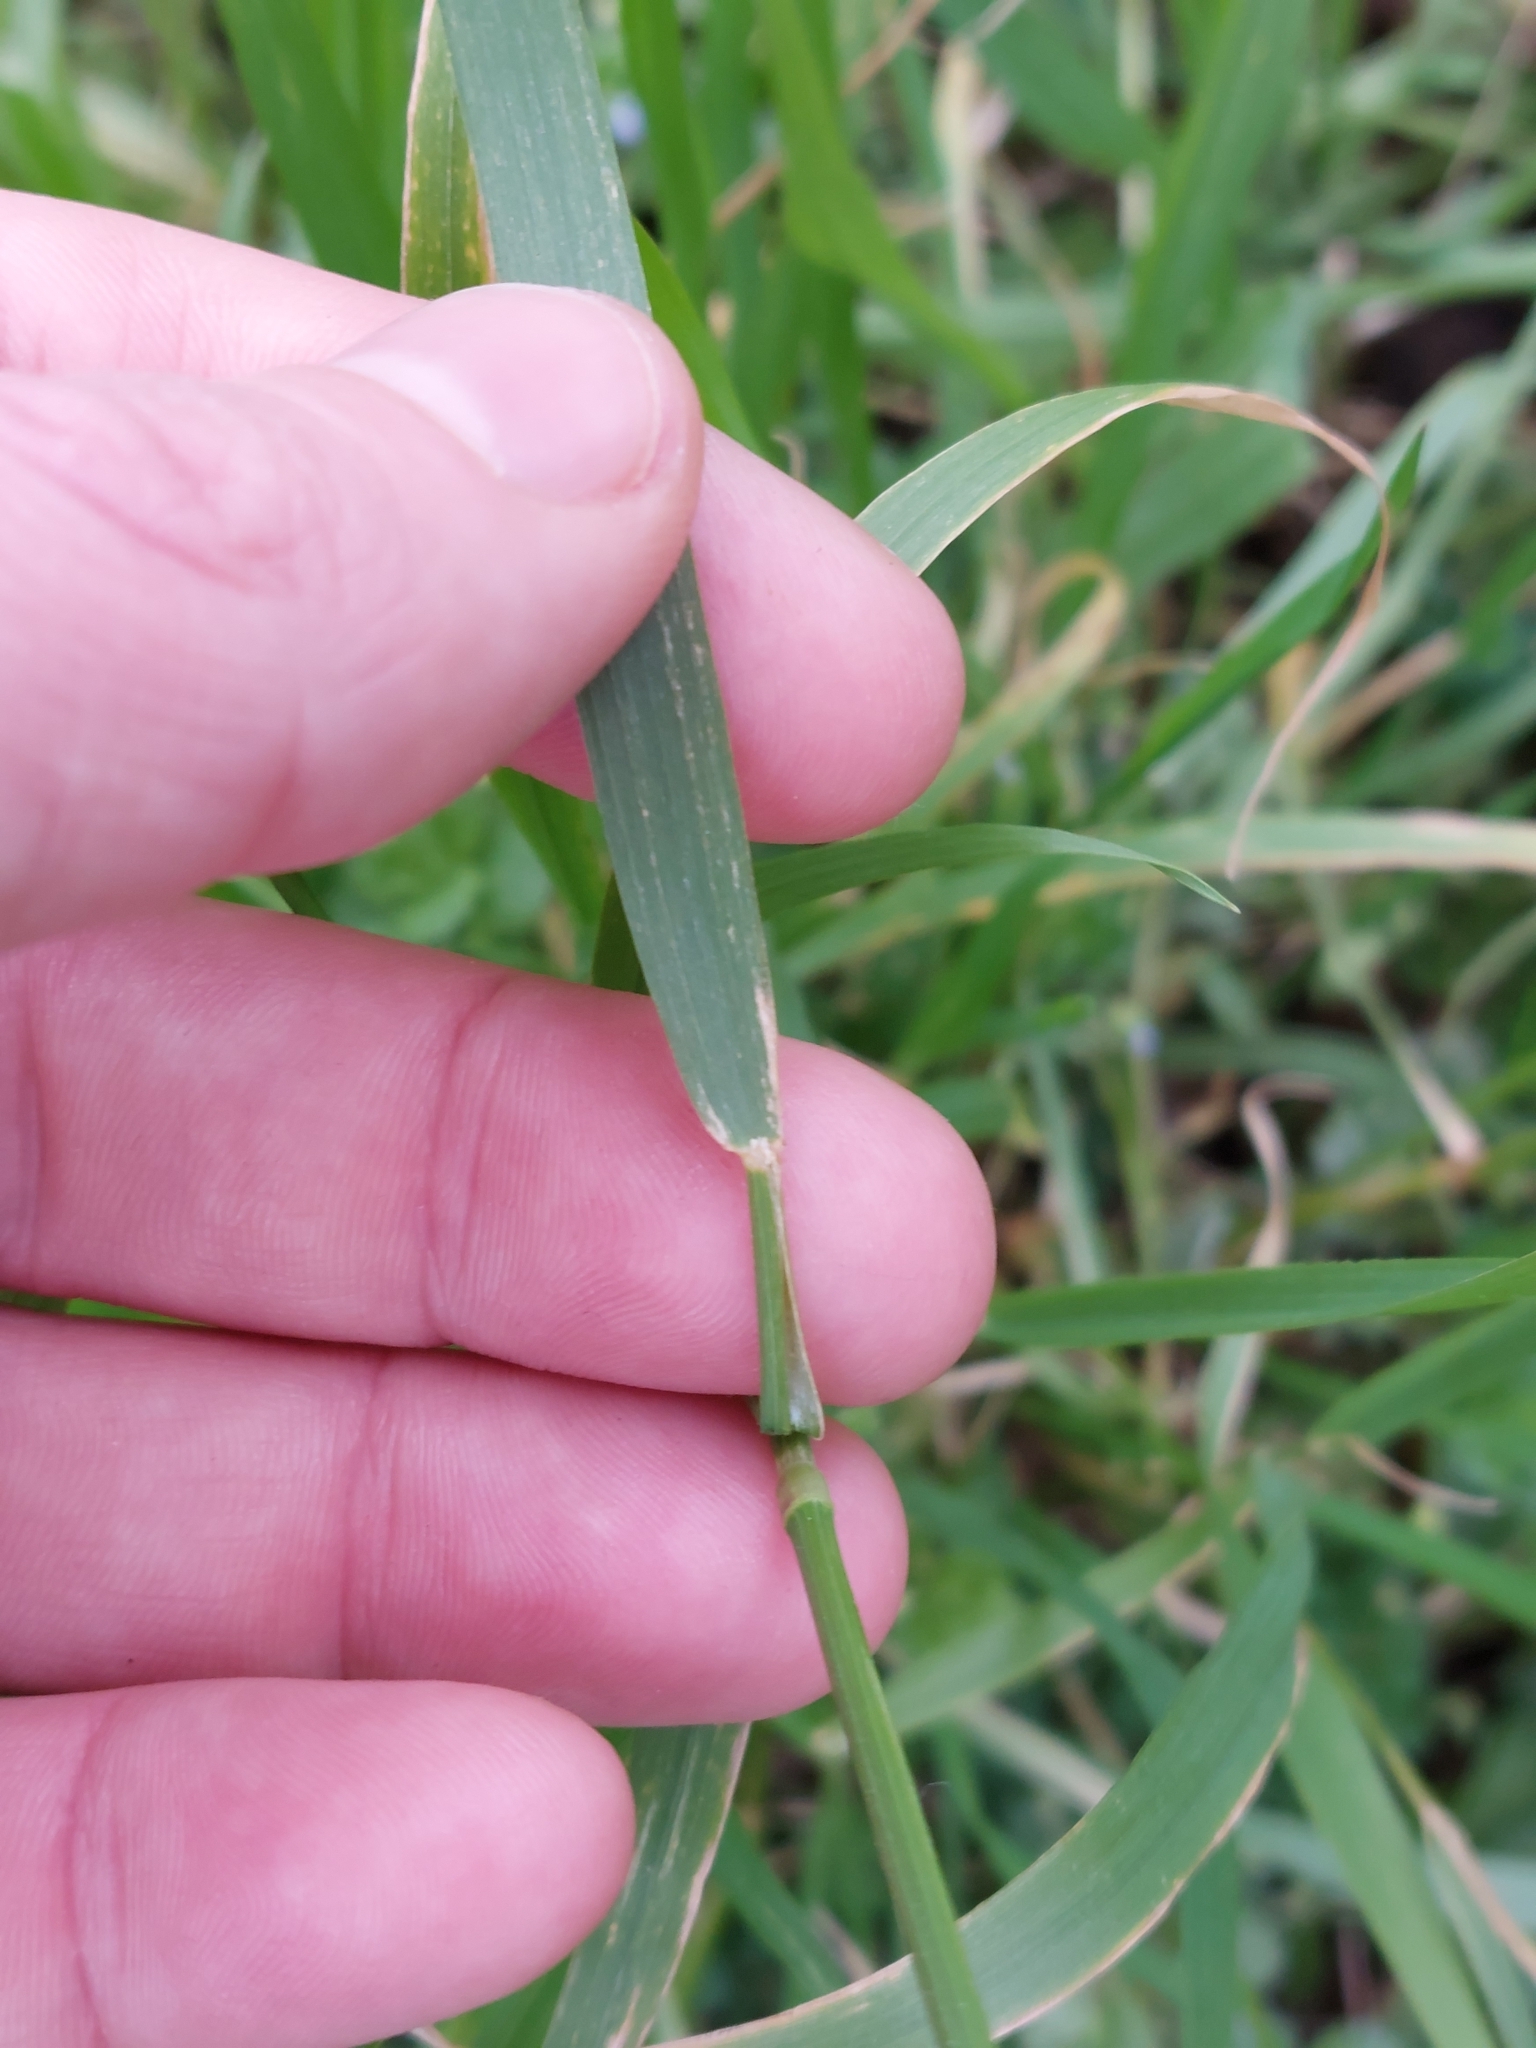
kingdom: Plantae
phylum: Tracheophyta
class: Liliopsida
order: Poales
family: Poaceae
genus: Arrhenatherum
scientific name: Arrhenatherum elatius
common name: Tall oatgrass
